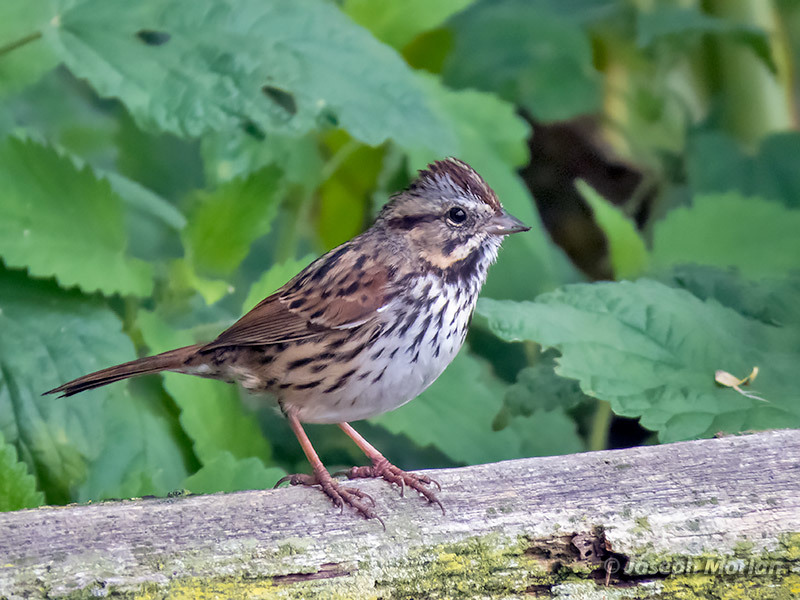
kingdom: Animalia
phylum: Chordata
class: Aves
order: Passeriformes
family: Passerellidae
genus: Melospiza
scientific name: Melospiza melodia
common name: Song sparrow
